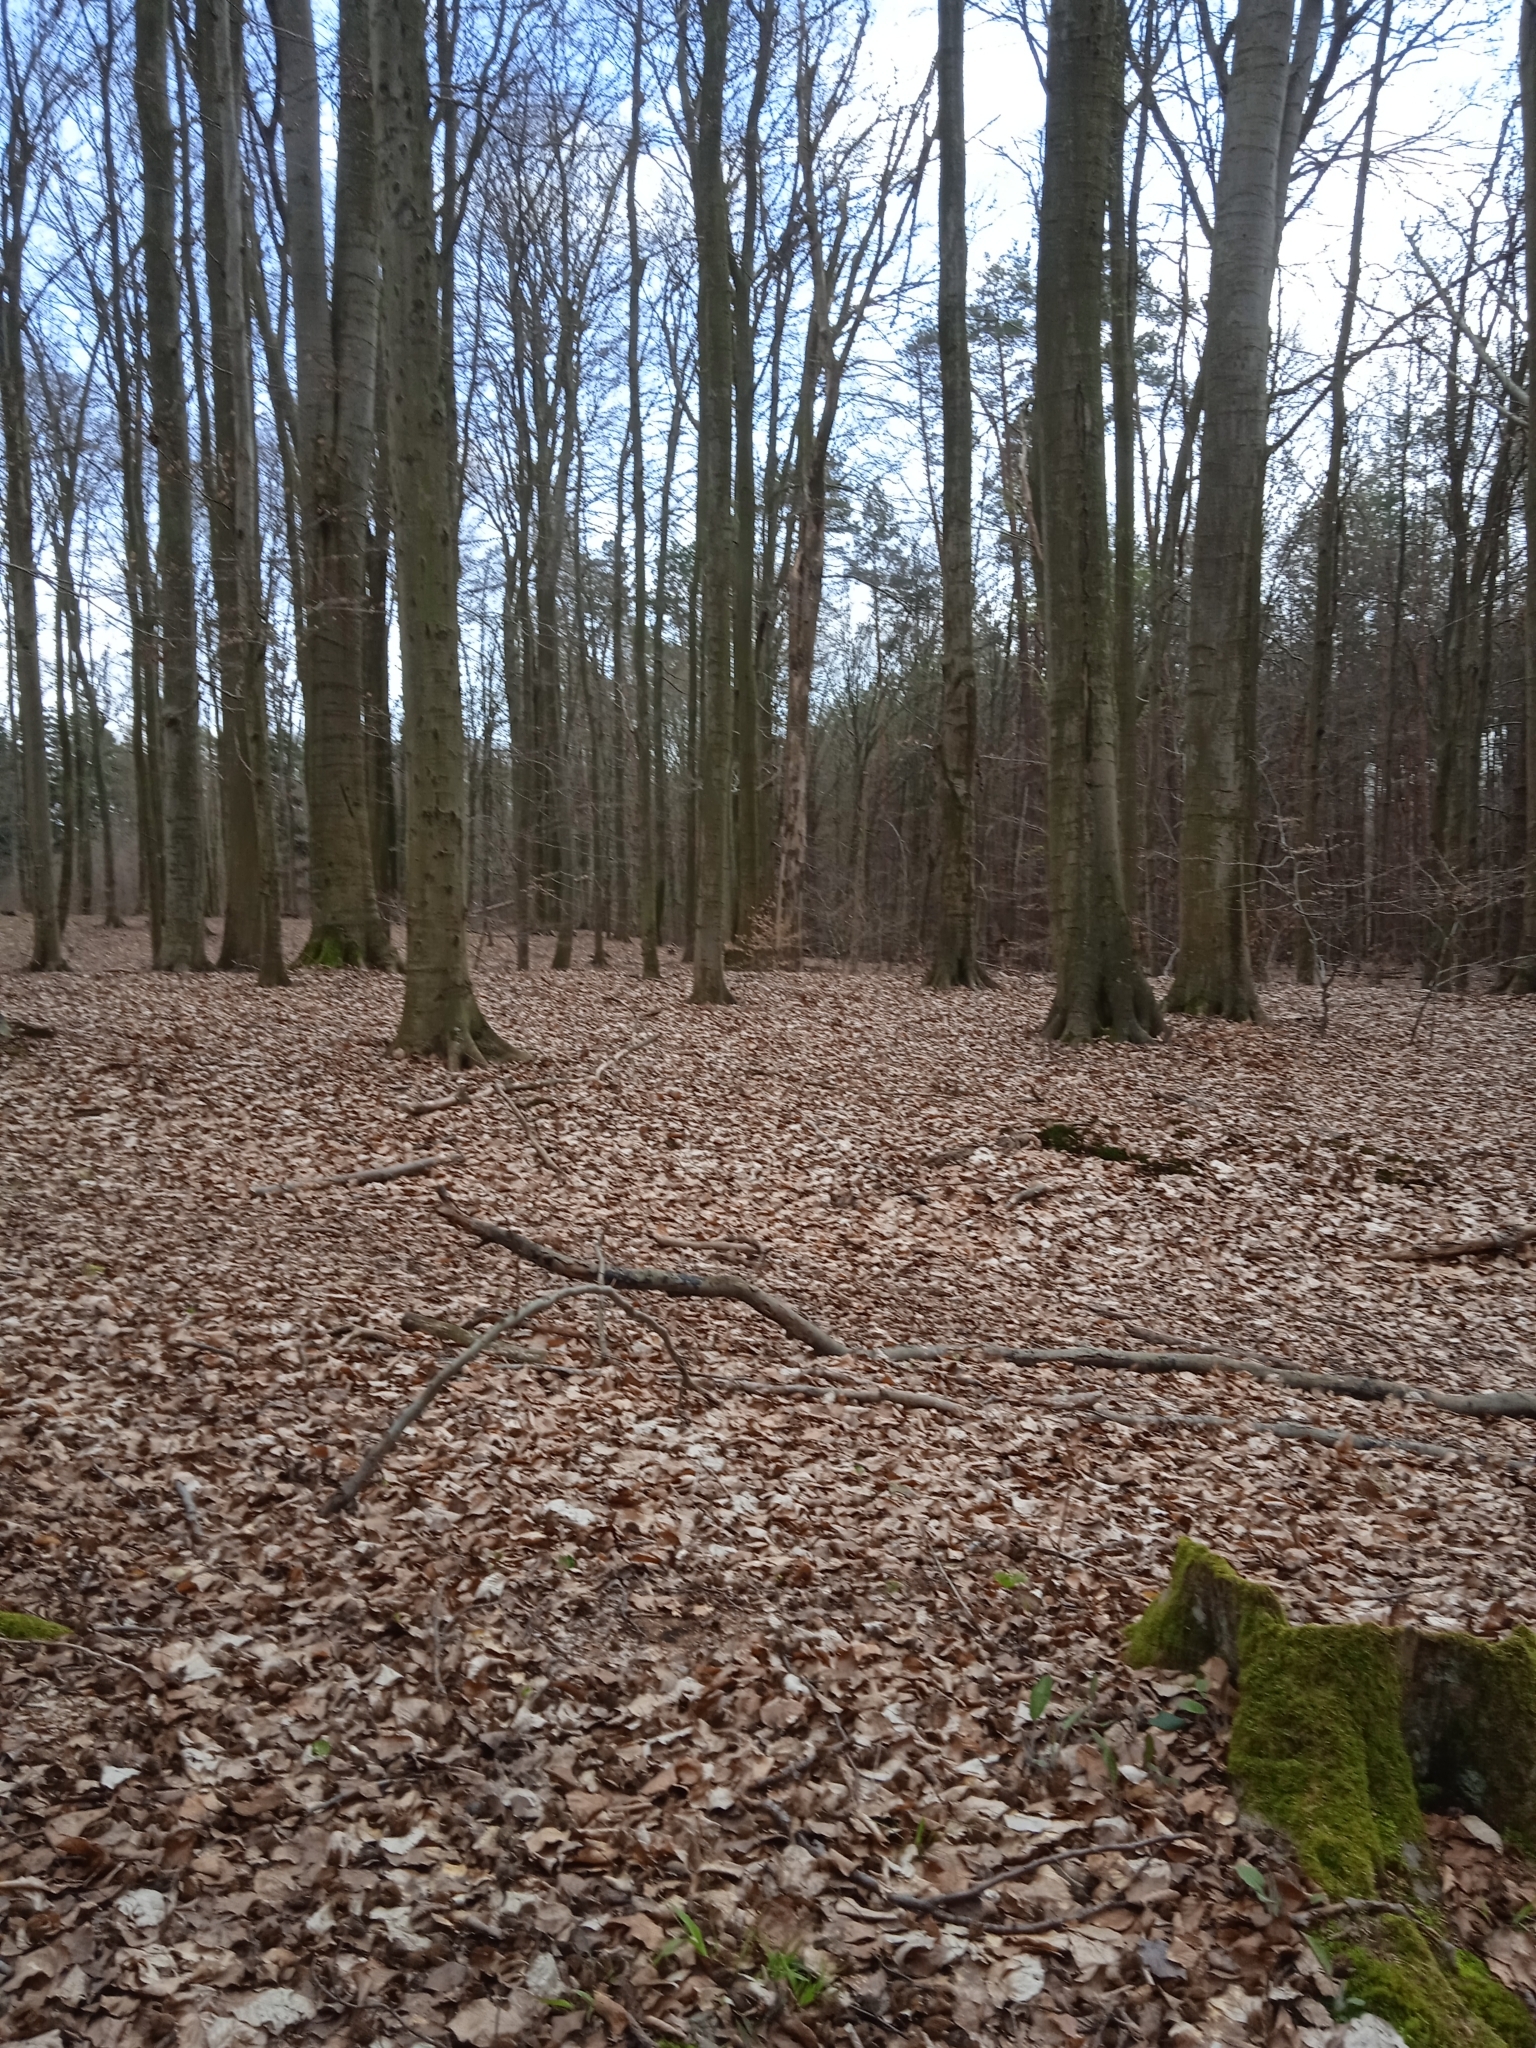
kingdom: Plantae
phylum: Tracheophyta
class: Liliopsida
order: Liliales
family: Melanthiaceae
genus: Paris
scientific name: Paris quadrifolia
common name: Herb-paris
